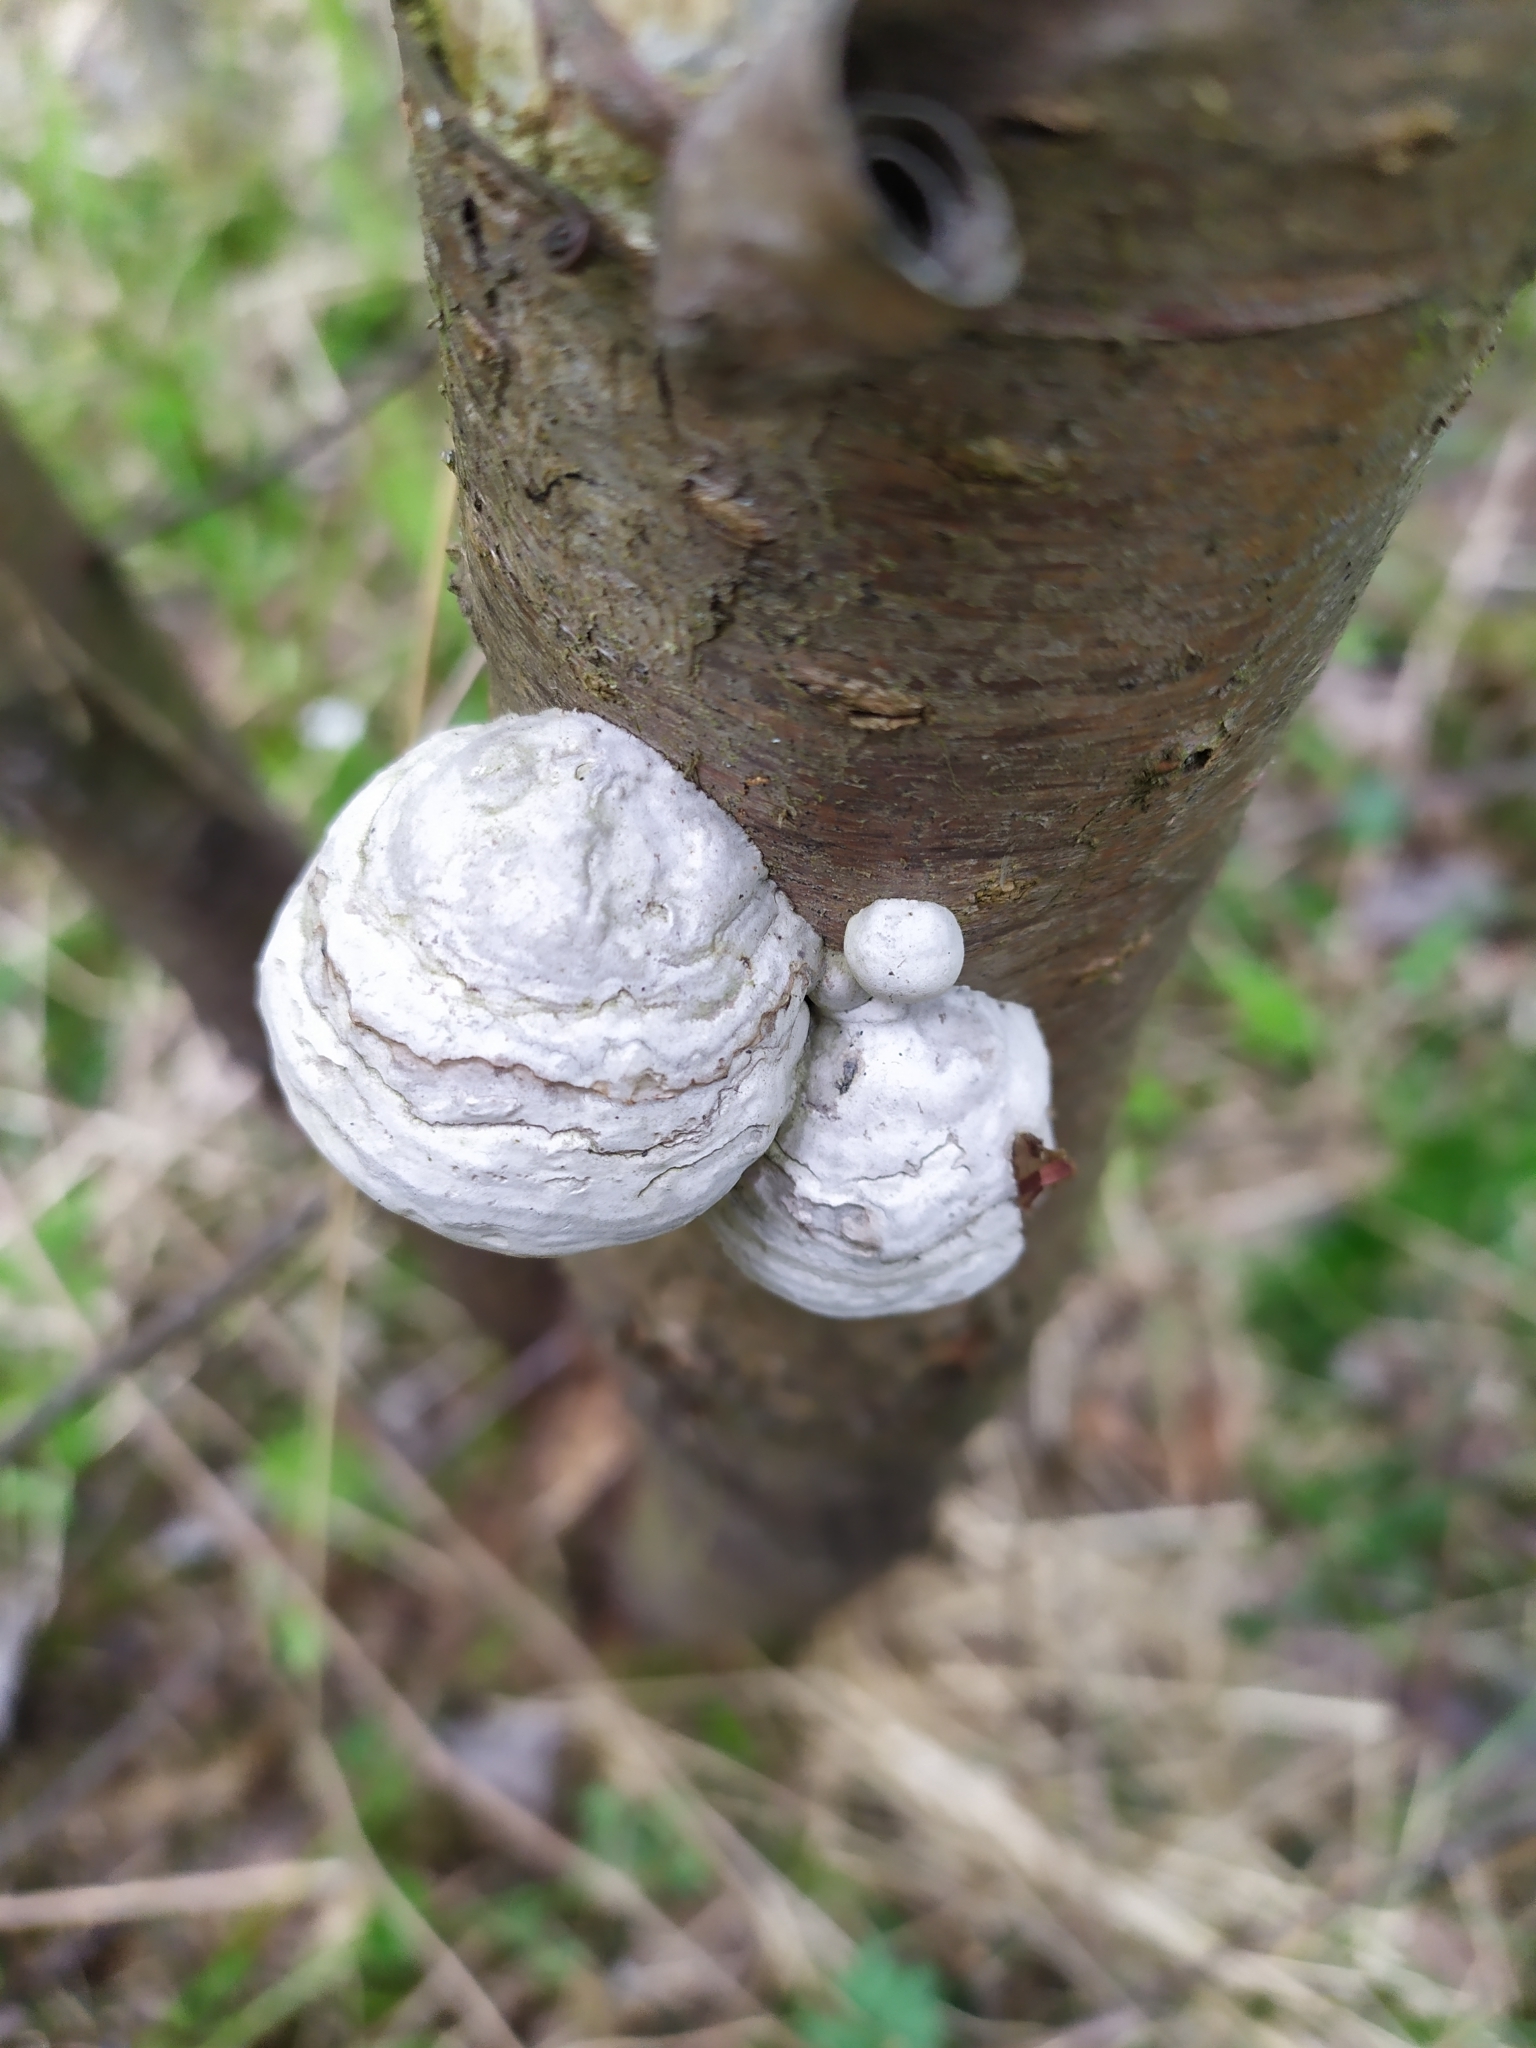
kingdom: Fungi
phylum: Basidiomycota
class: Agaricomycetes
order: Polyporales
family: Polyporaceae
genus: Fomes
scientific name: Fomes fomentarius
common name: Hoof fungus
